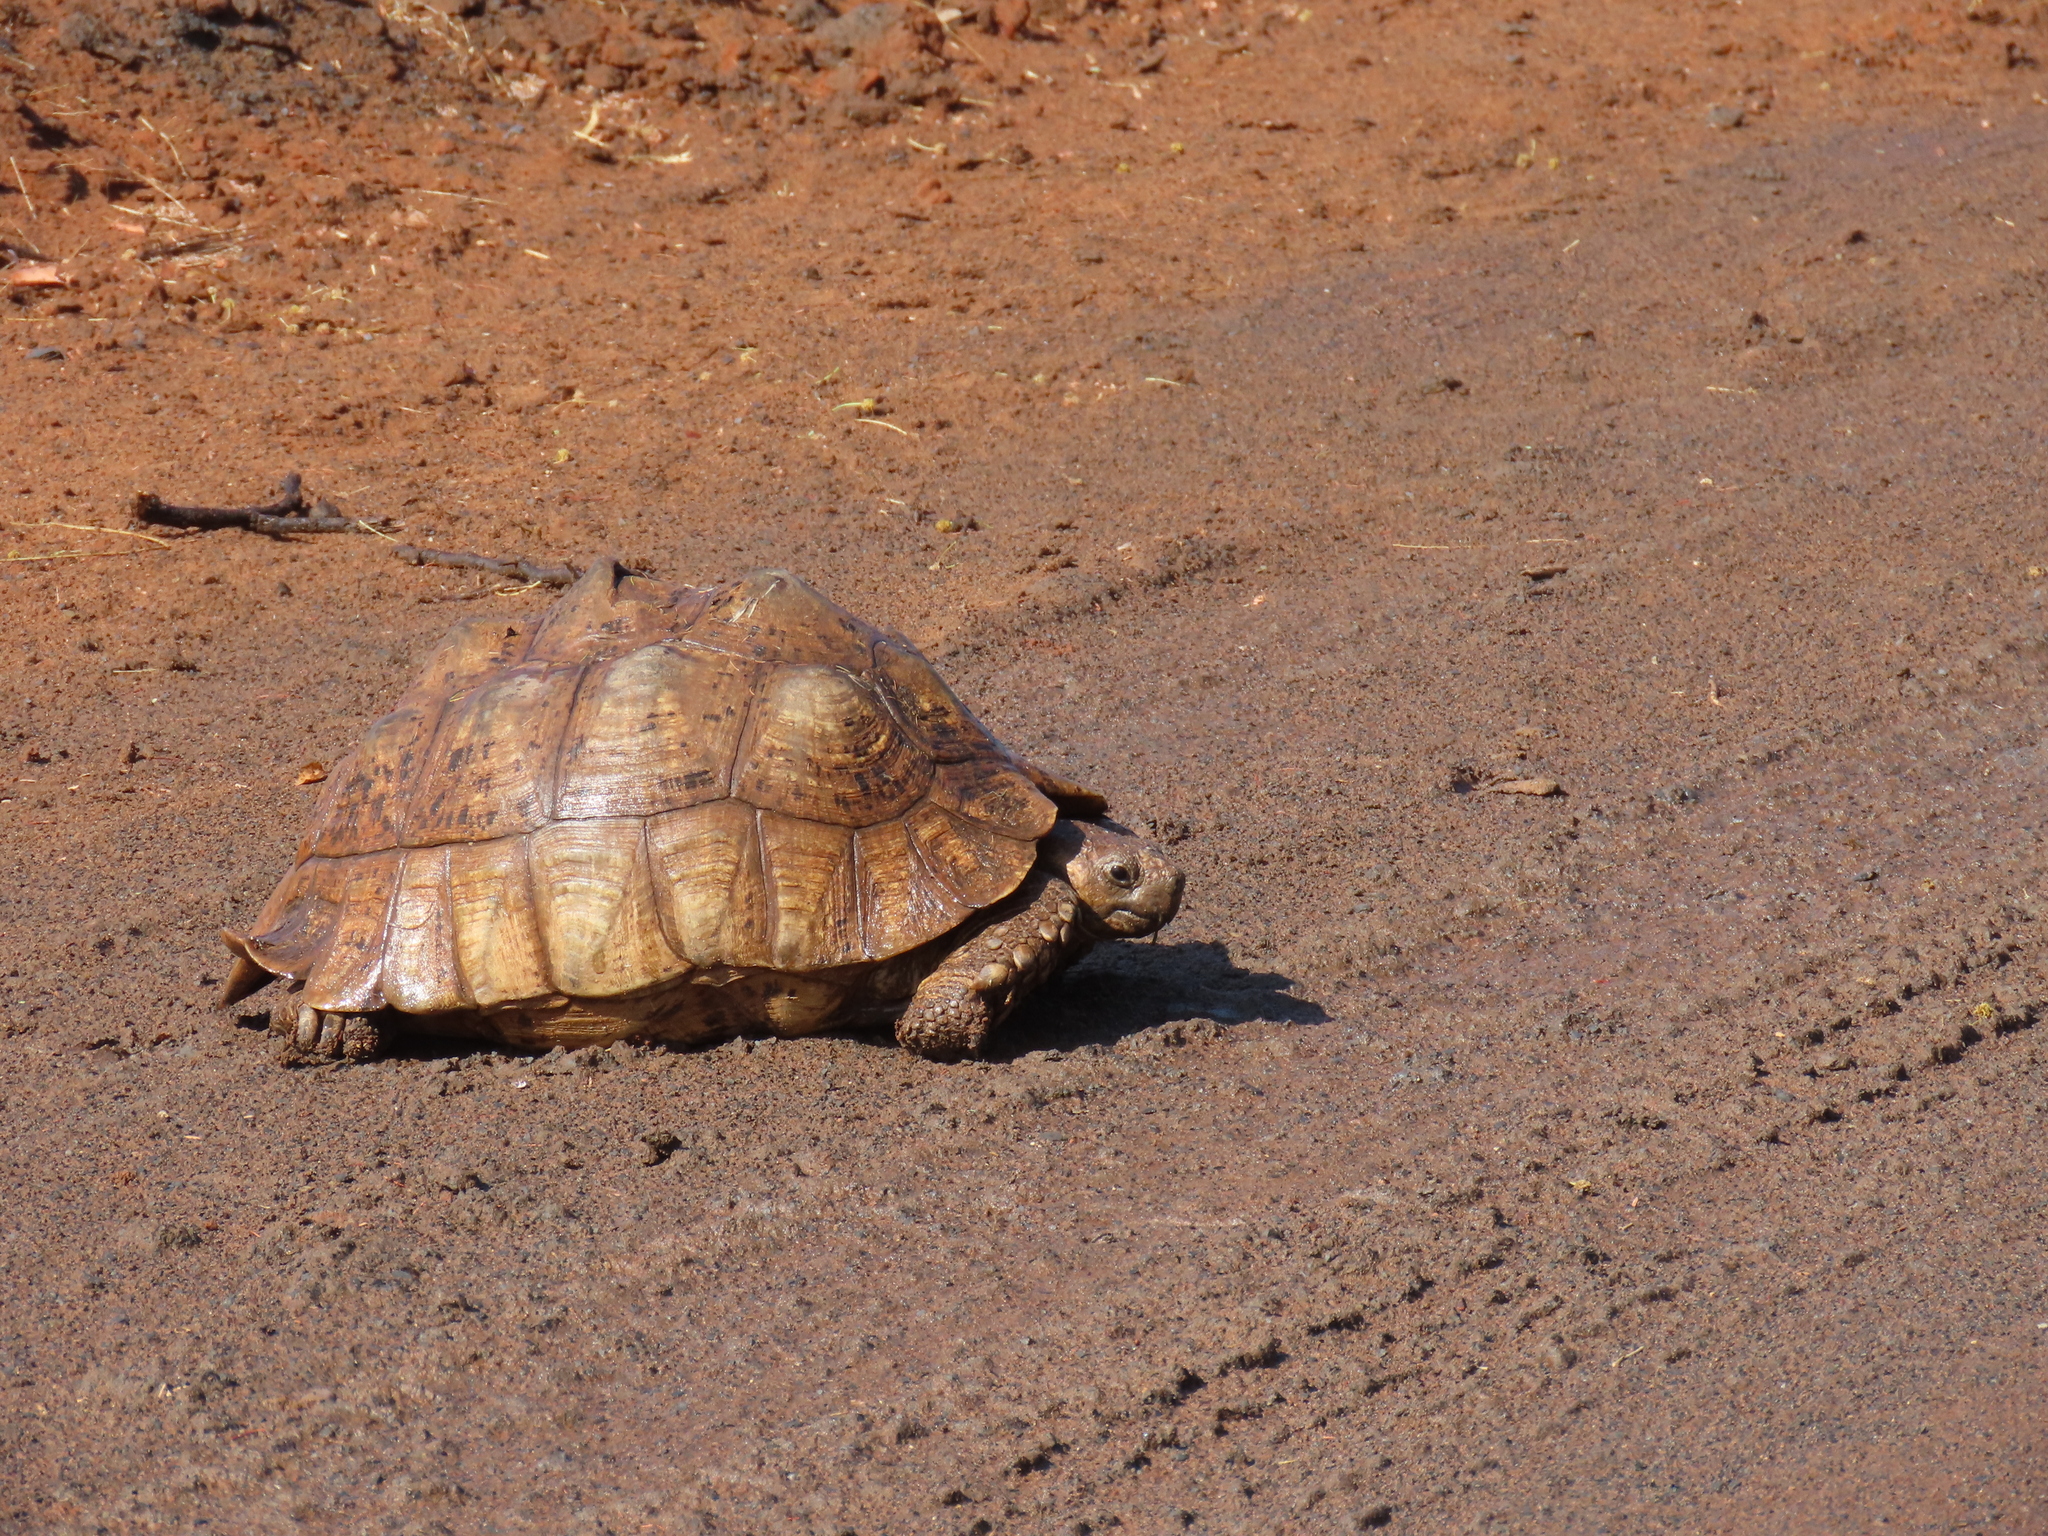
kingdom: Animalia
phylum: Chordata
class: Testudines
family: Testudinidae
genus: Stigmochelys
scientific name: Stigmochelys pardalis
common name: Leopard tortoise
